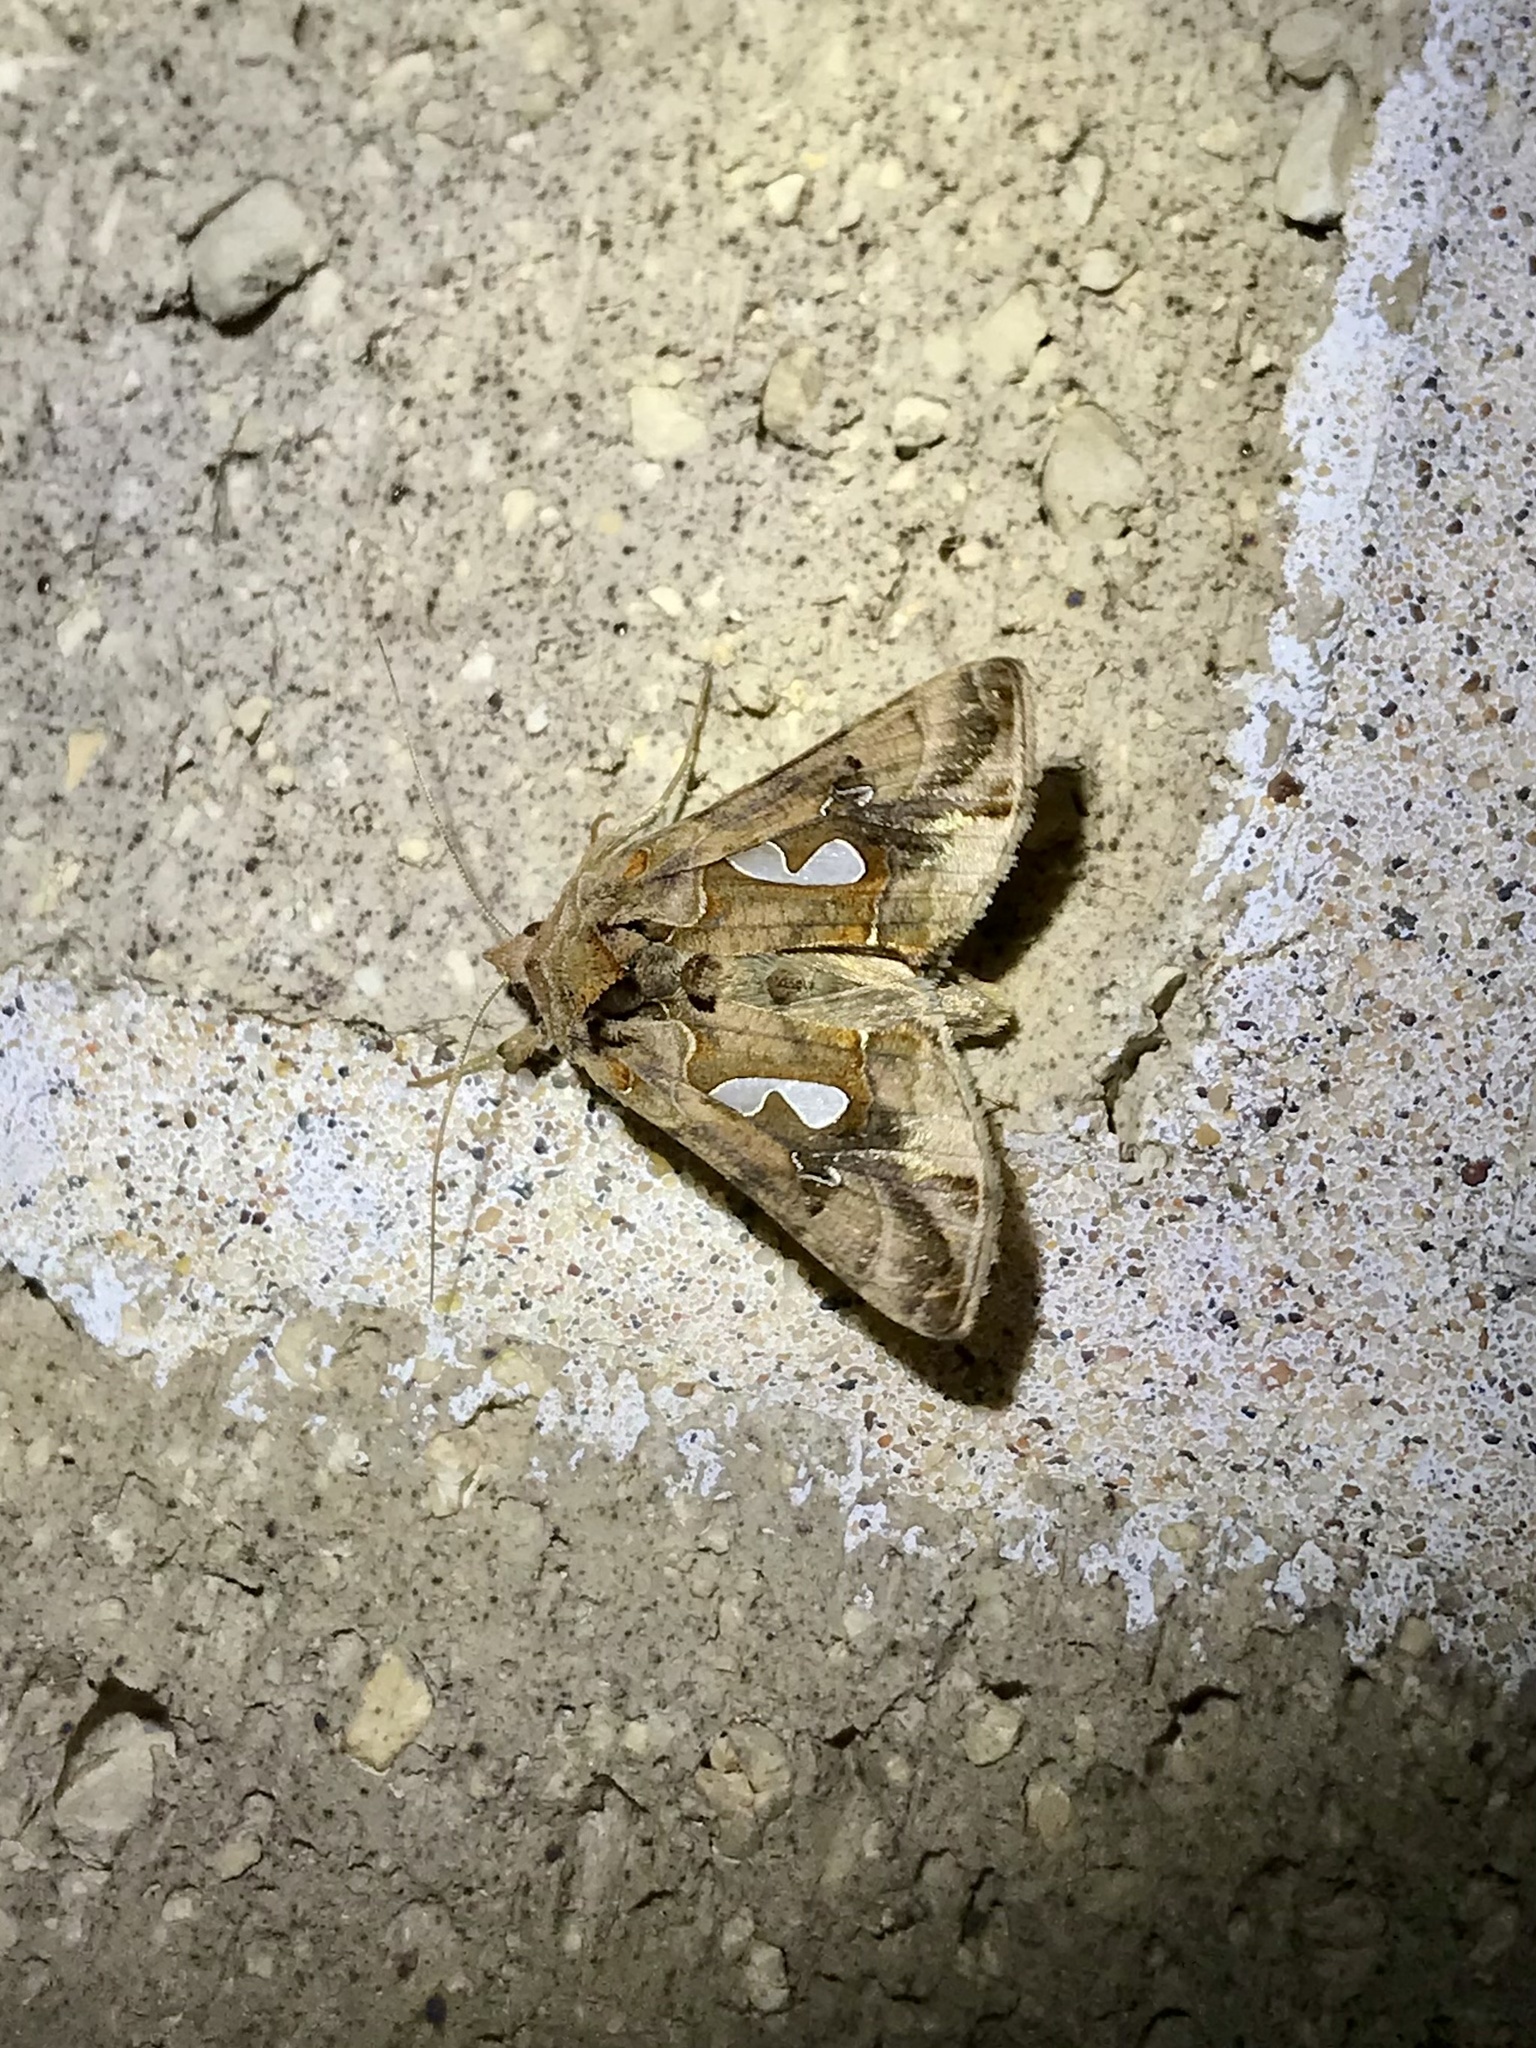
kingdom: Animalia
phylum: Arthropoda
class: Insecta
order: Lepidoptera
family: Noctuidae
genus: Megalographa
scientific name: Megalographa biloba
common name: Cutworm
